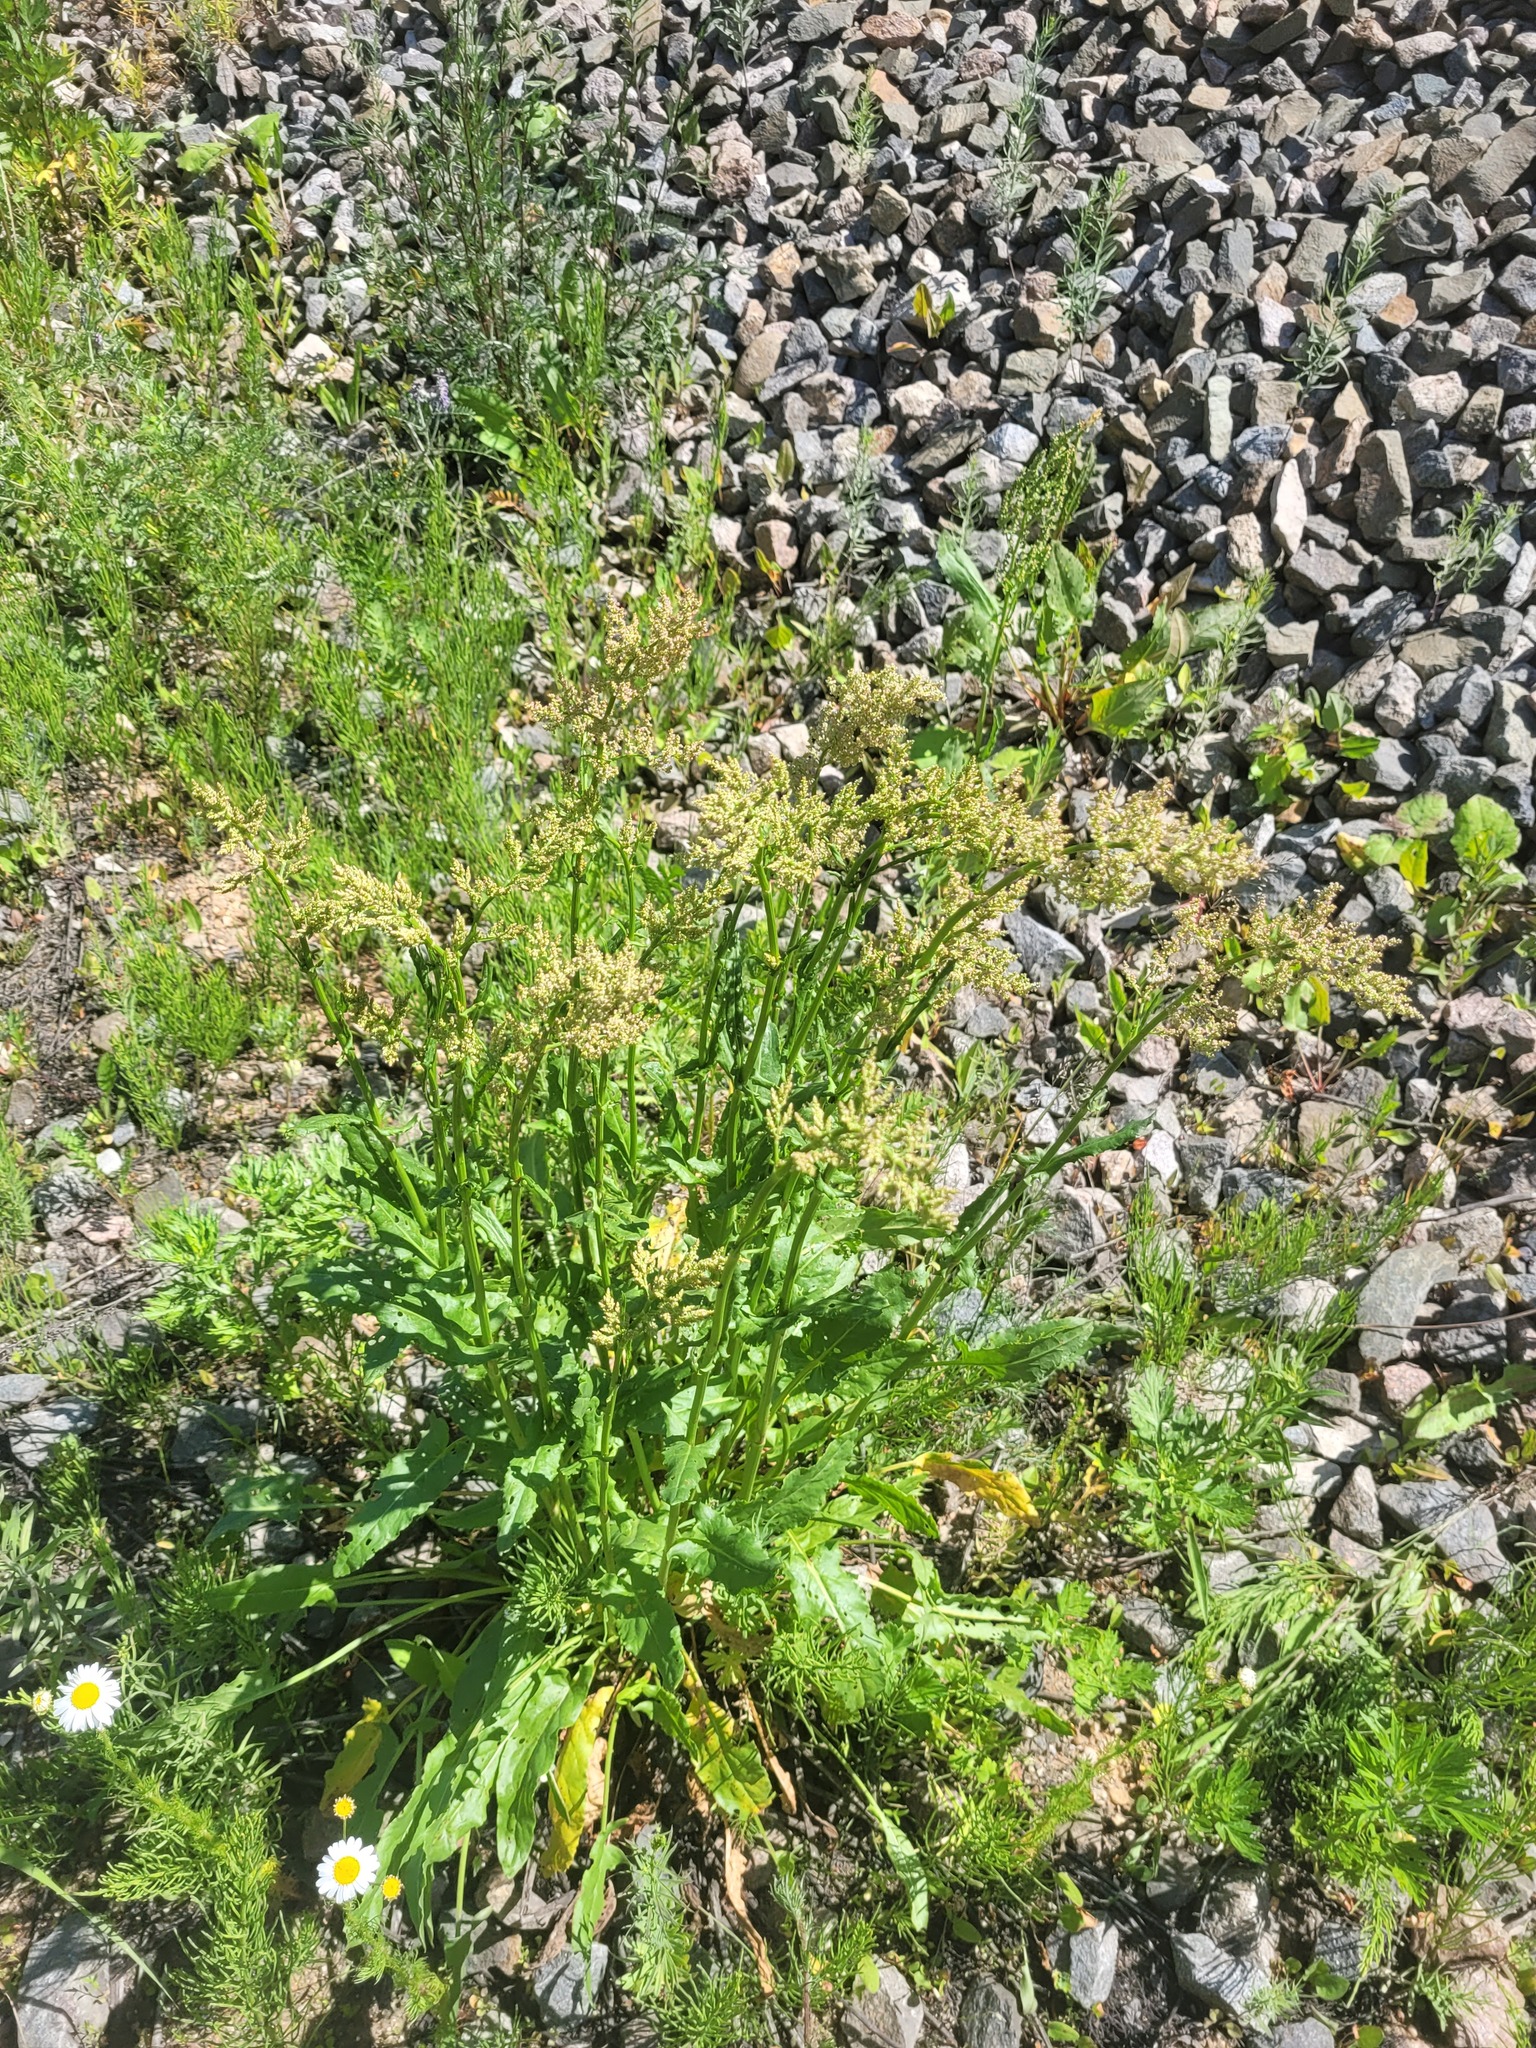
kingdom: Plantae
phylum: Tracheophyta
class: Magnoliopsida
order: Caryophyllales
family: Polygonaceae
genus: Rumex
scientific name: Rumex thyrsiflorus
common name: Garden sorrel
